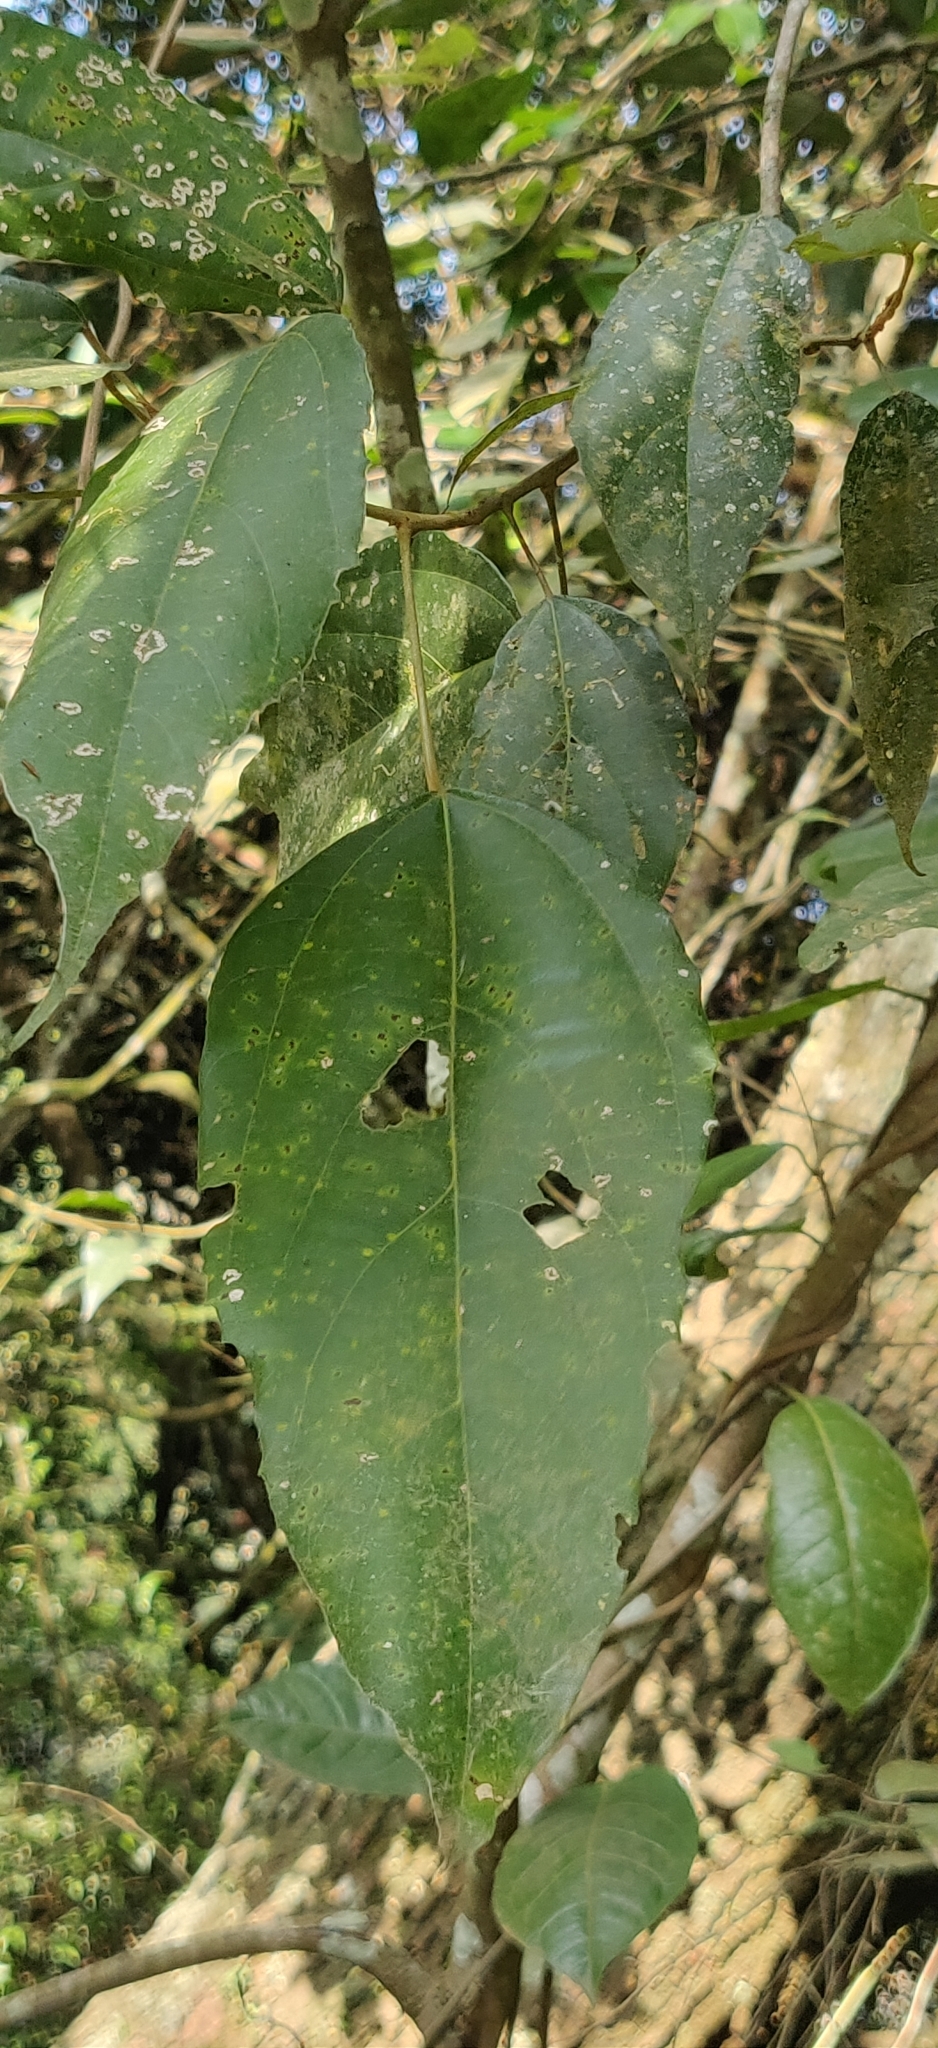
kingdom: Plantae
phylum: Tracheophyta
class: Magnoliopsida
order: Malpighiales
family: Euphorbiaceae
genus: Mallotus
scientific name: Mallotus philippensis
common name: Kamala tree
